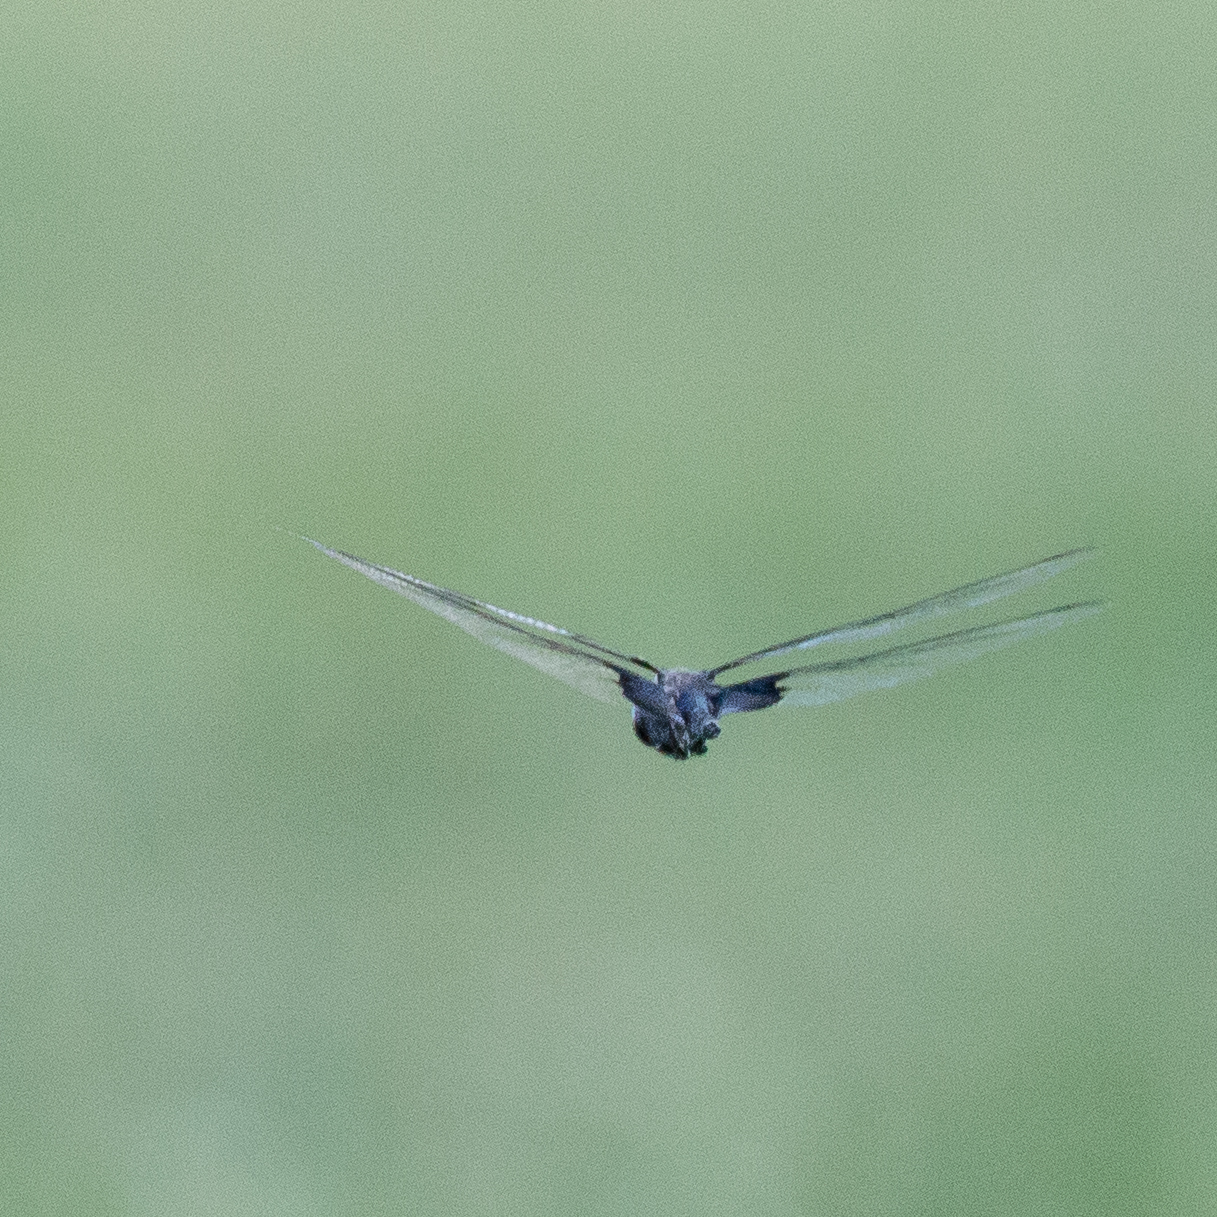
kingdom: Animalia
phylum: Arthropoda
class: Insecta
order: Odonata
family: Libellulidae
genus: Tramea
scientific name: Tramea lacerata
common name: Black saddlebags
